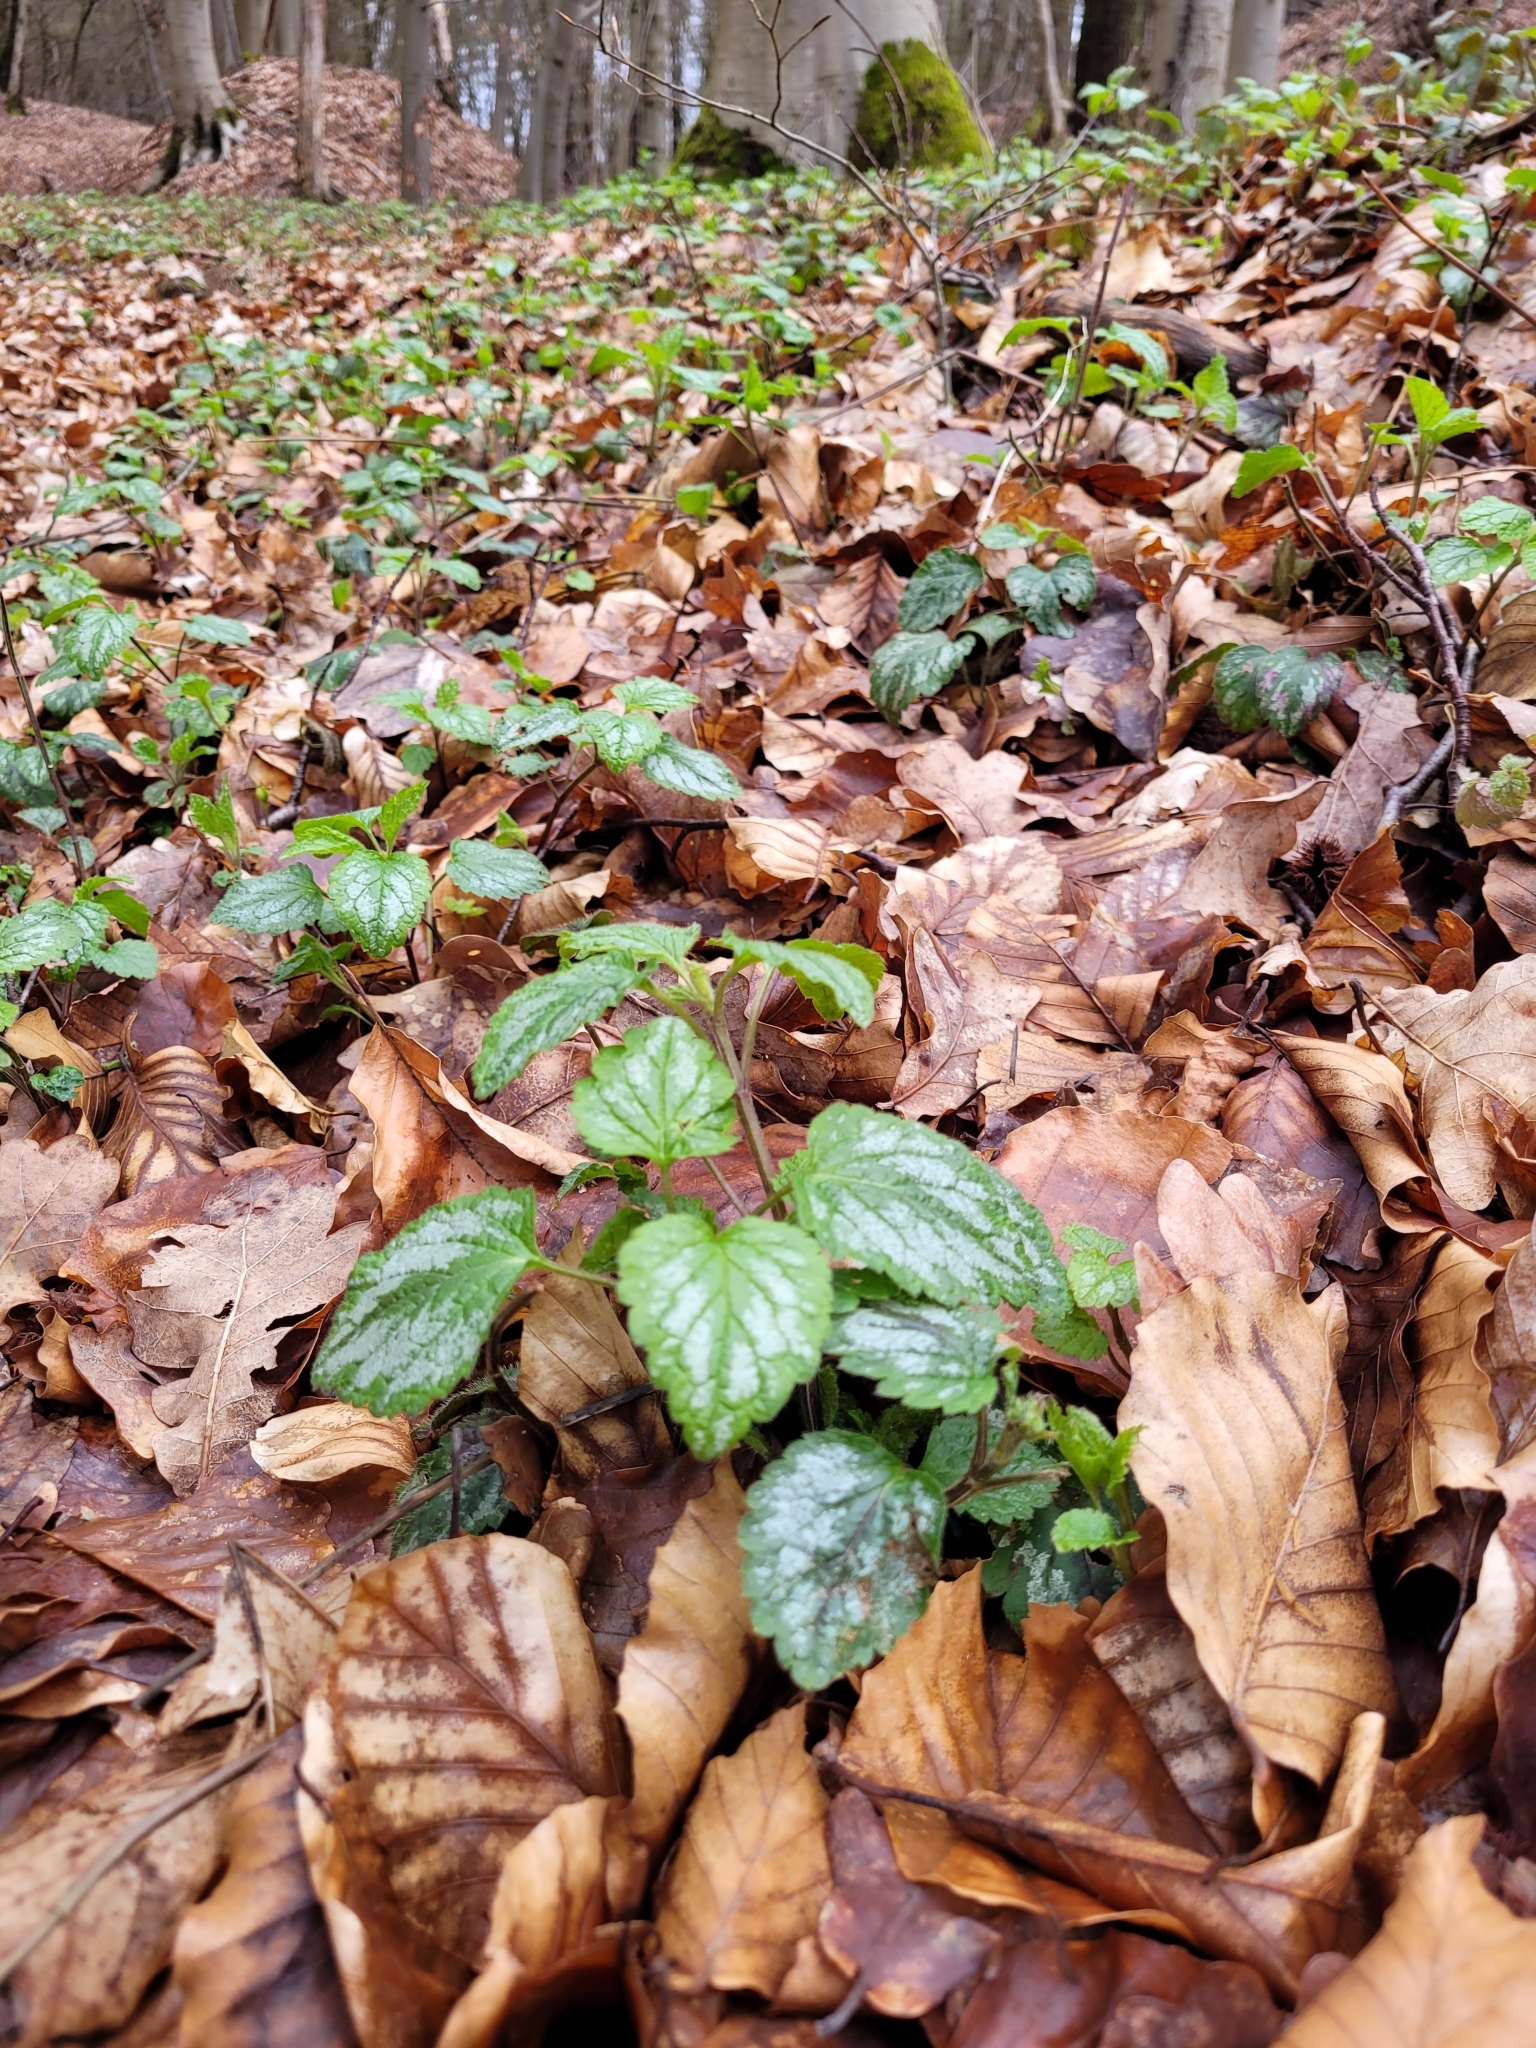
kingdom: Plantae
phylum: Tracheophyta
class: Magnoliopsida
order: Lamiales
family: Lamiaceae
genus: Lamium
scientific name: Lamium galeobdolon
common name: Yellow archangel
